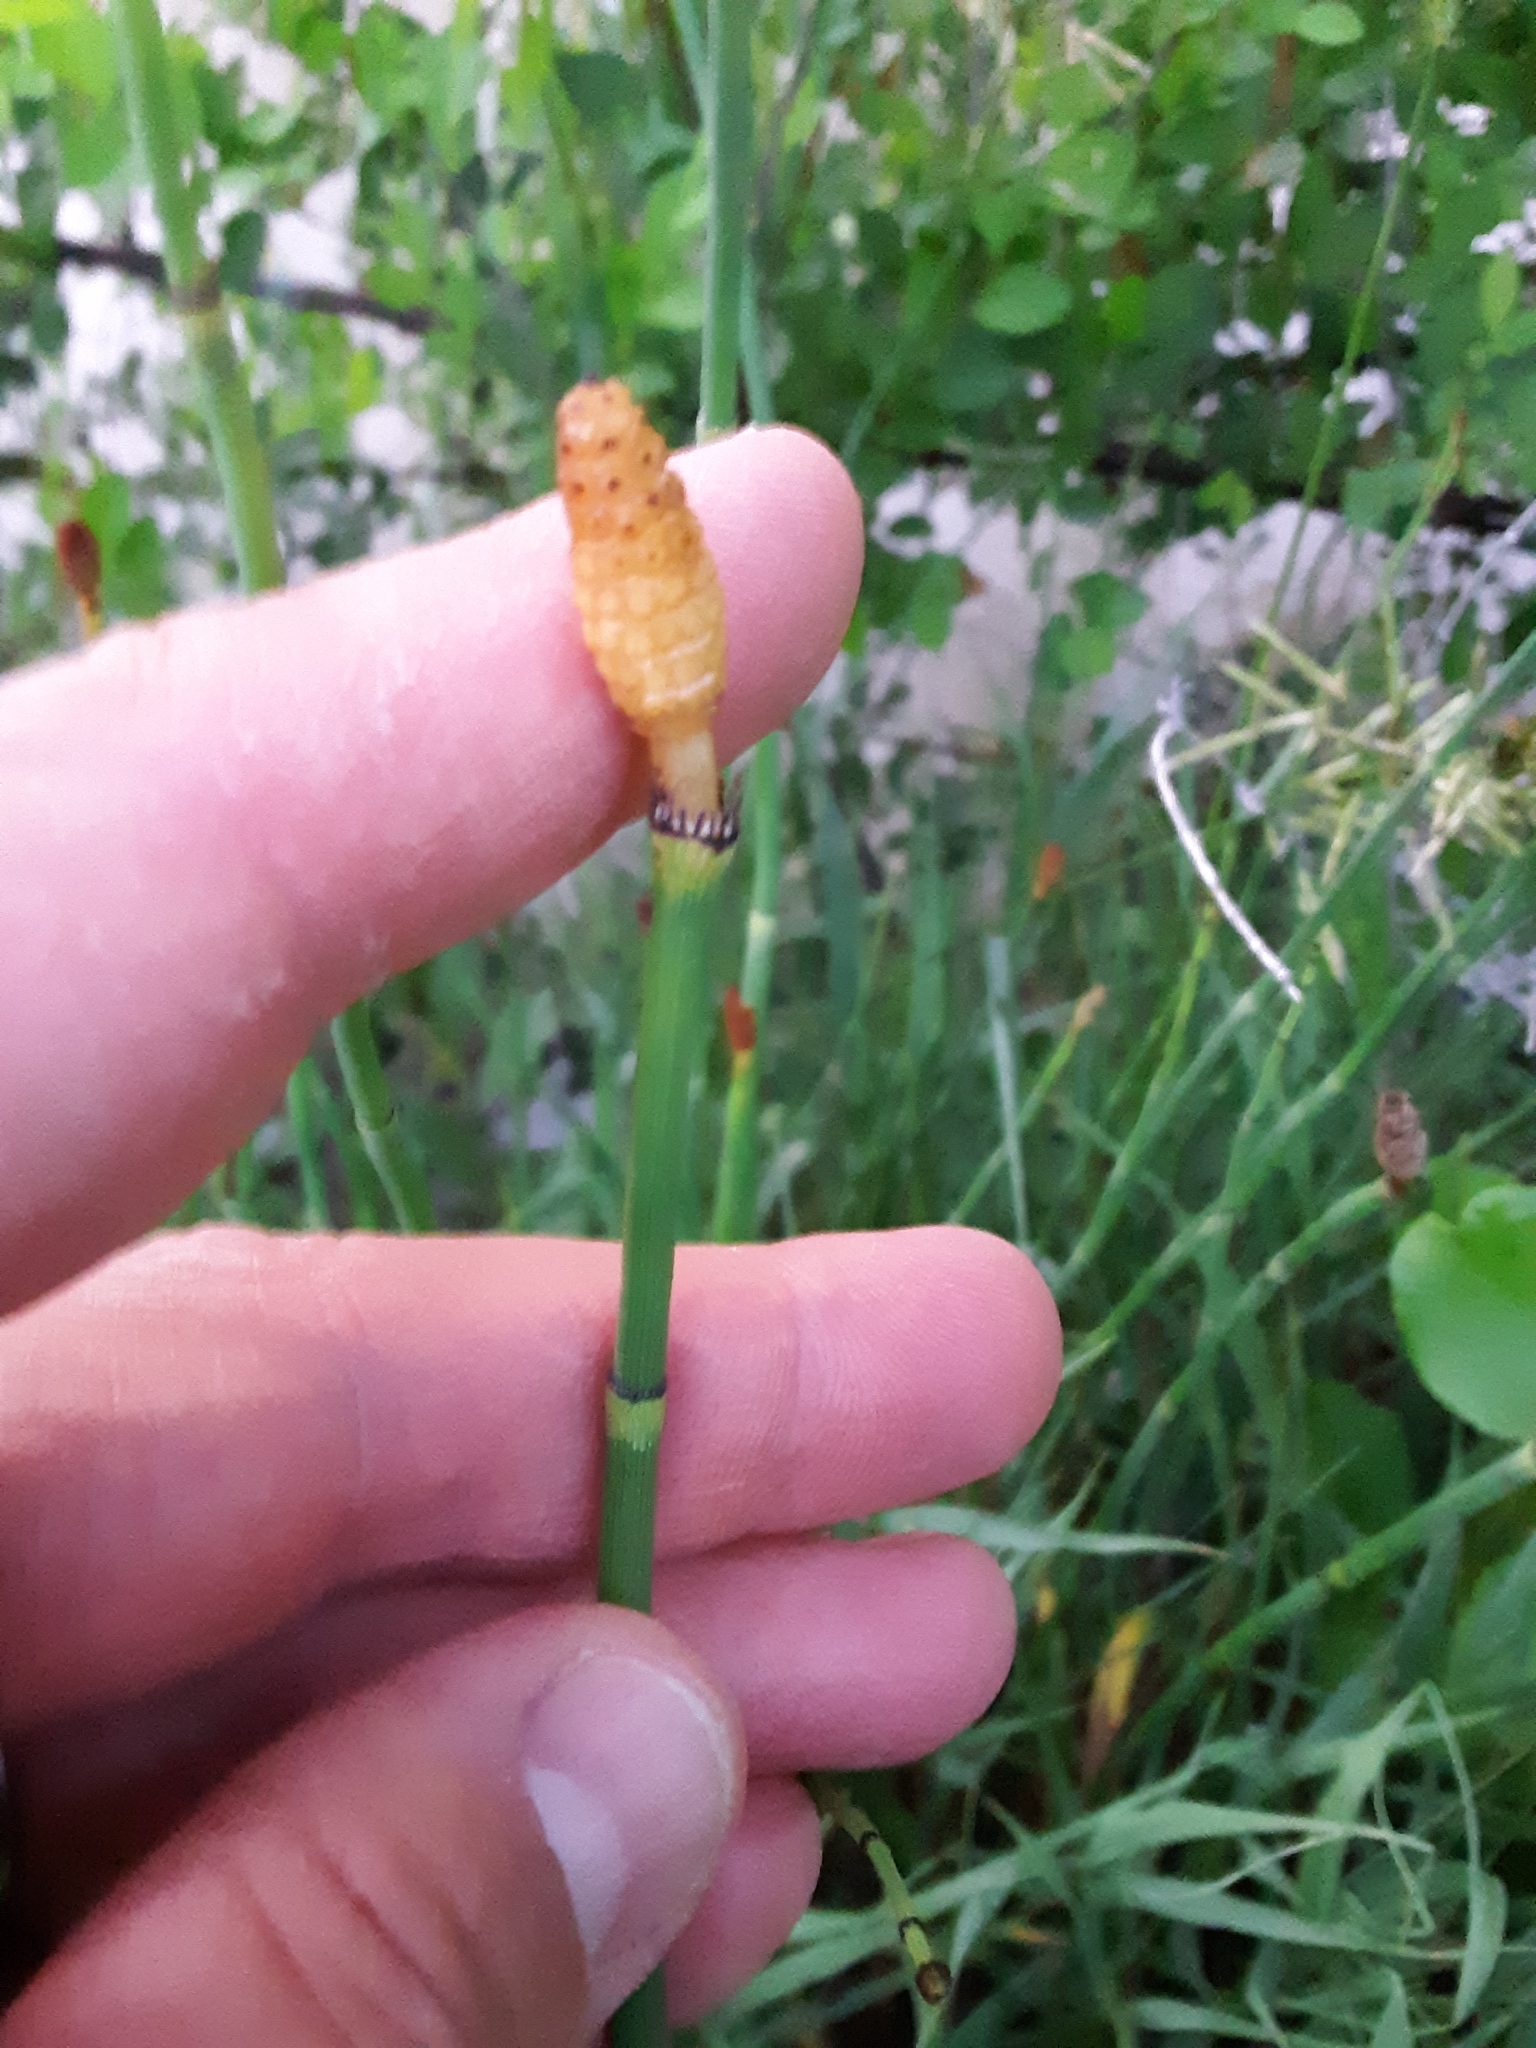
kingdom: Plantae
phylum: Tracheophyta
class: Polypodiopsida
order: Equisetales
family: Equisetaceae
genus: Equisetum
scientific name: Equisetum laevigatum
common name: Smooth scouring-rush
